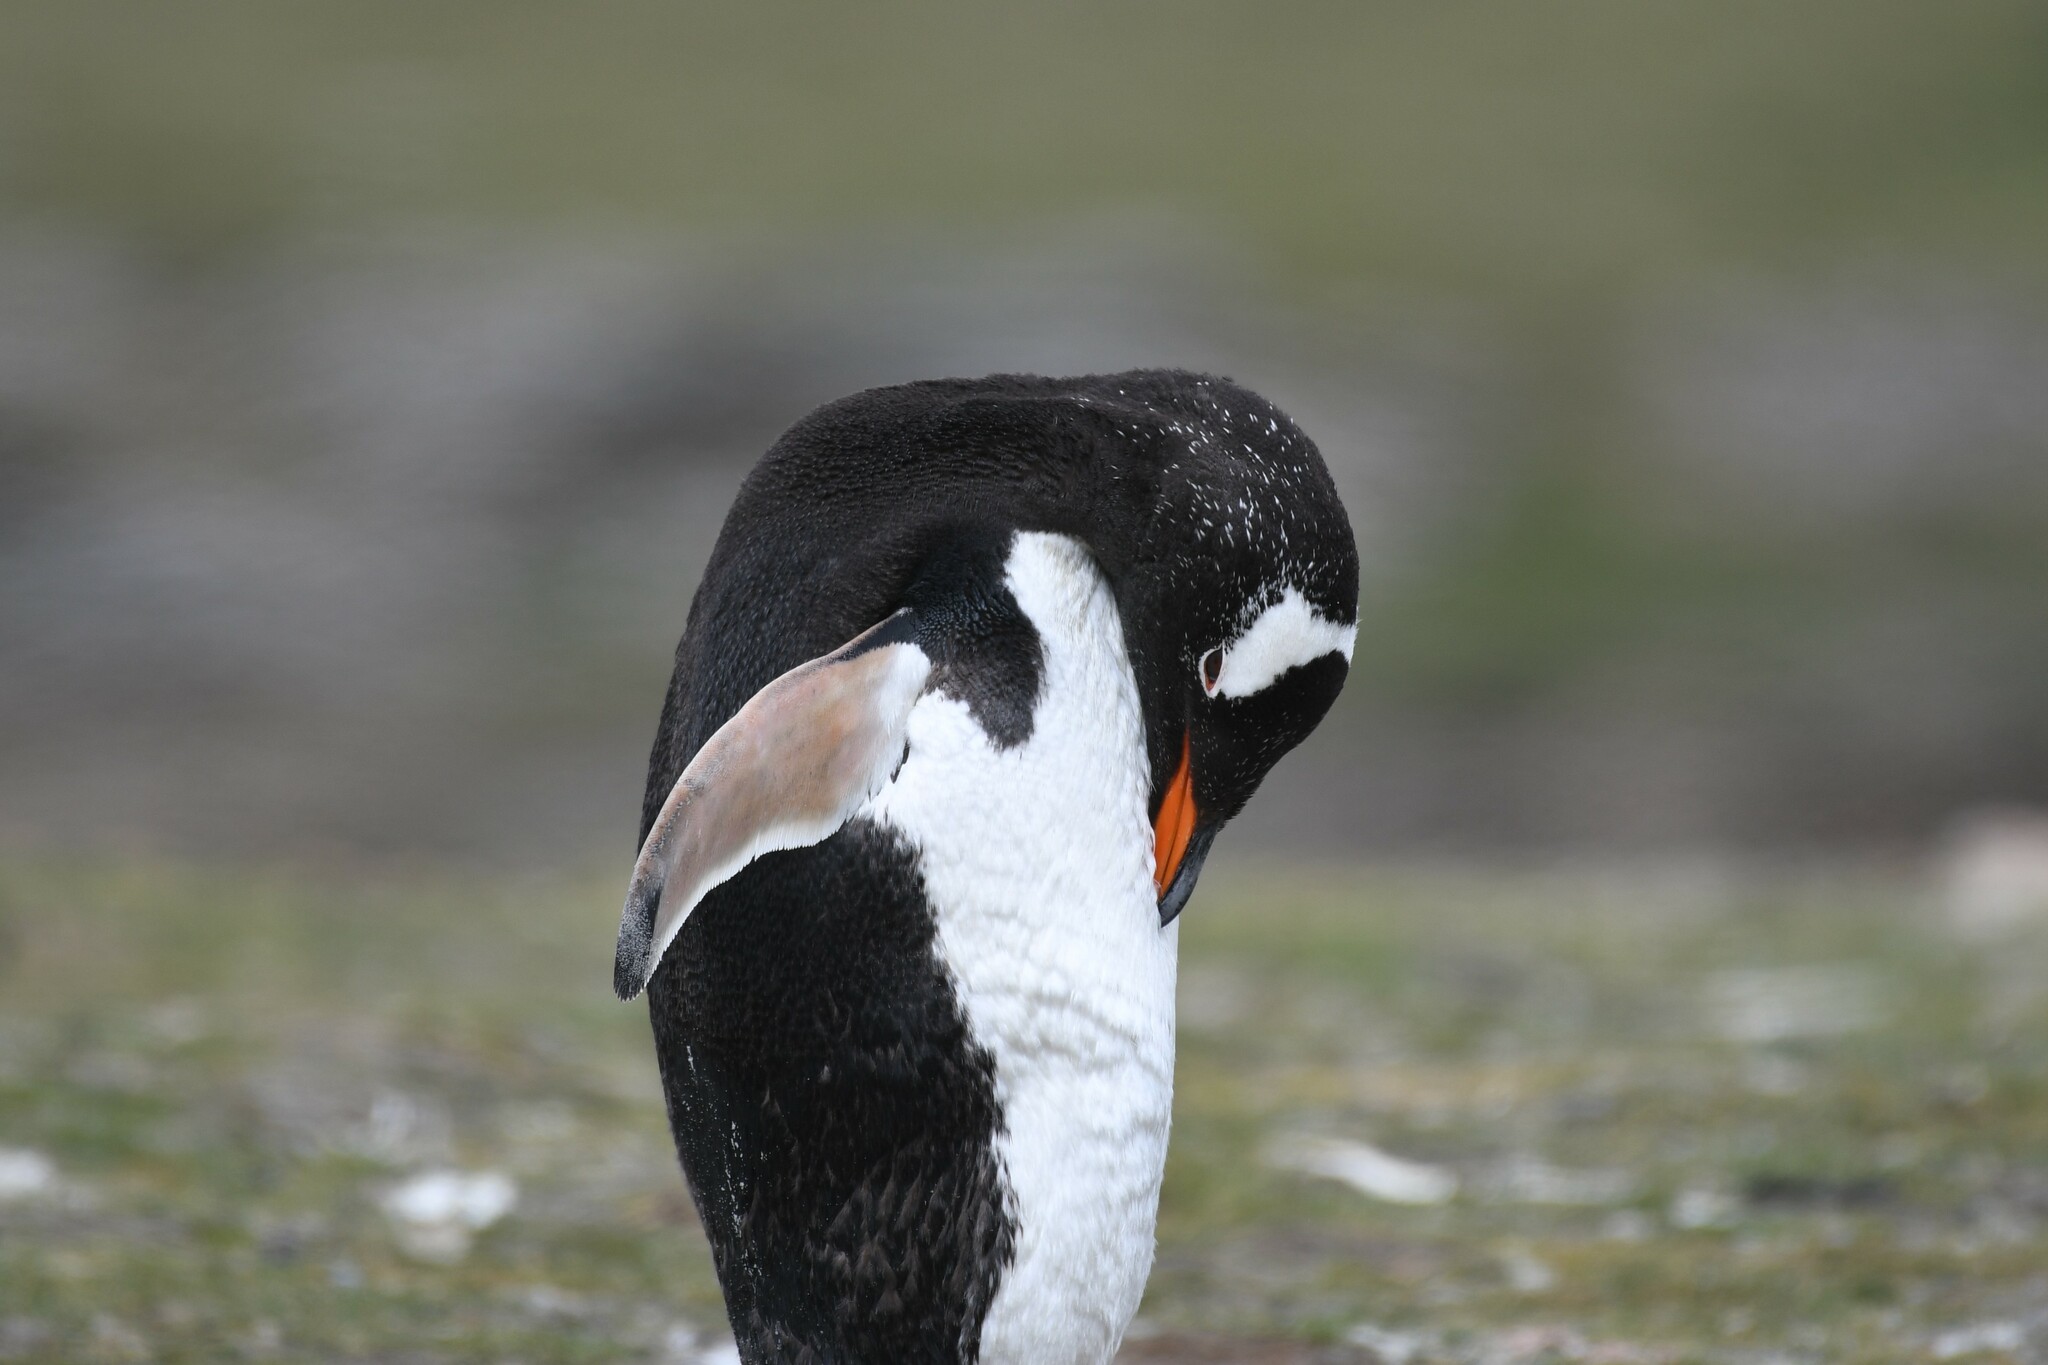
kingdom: Animalia
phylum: Chordata
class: Aves
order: Sphenisciformes
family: Spheniscidae
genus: Pygoscelis
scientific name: Pygoscelis papua
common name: Gentoo penguin
